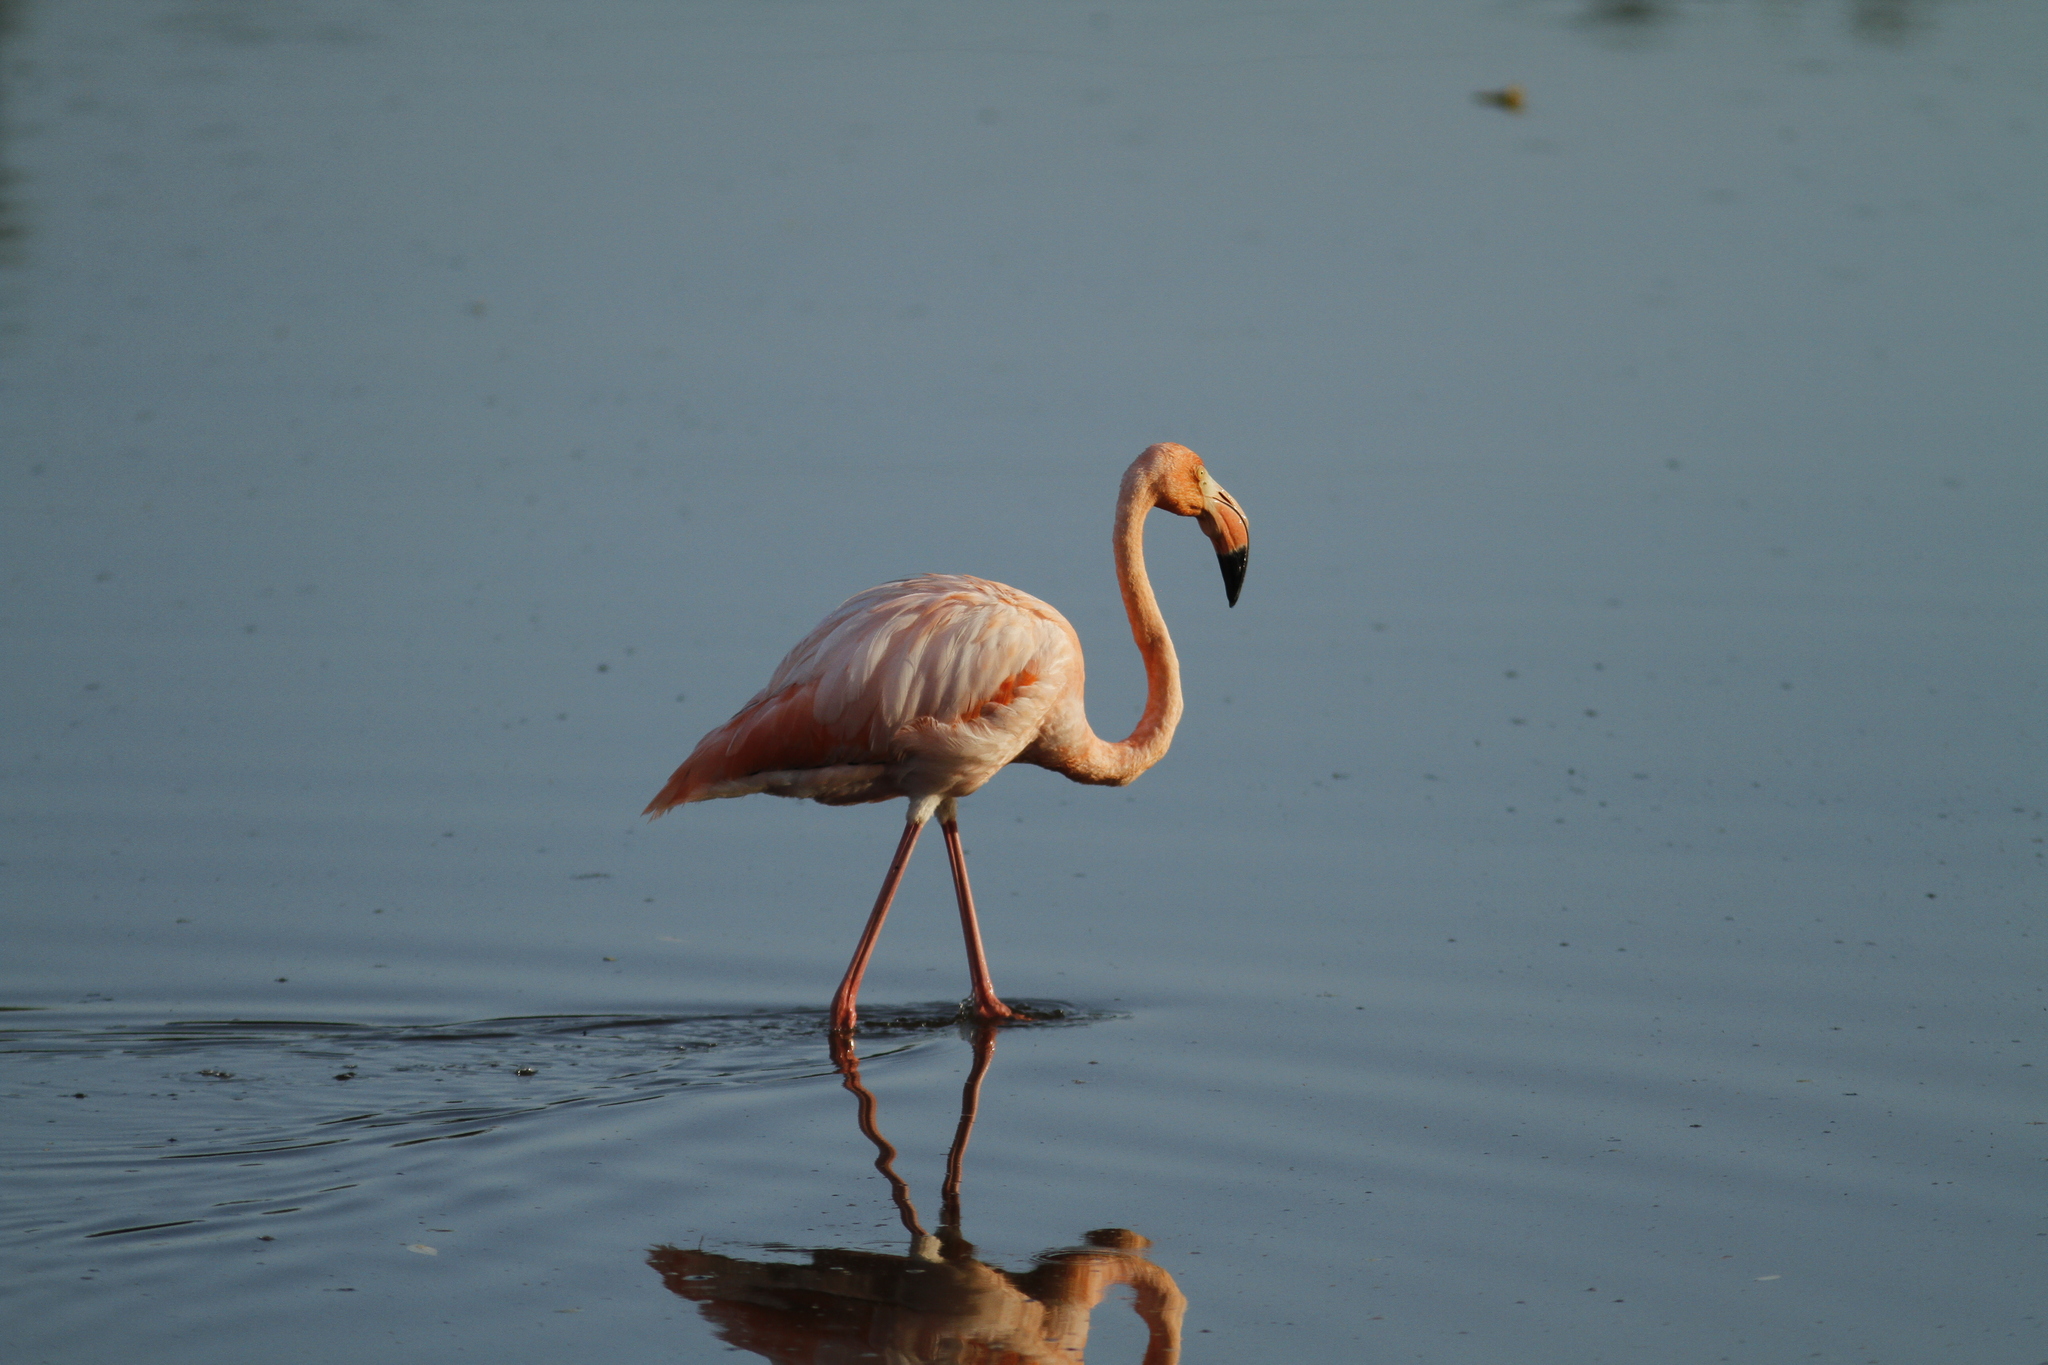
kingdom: Animalia
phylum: Chordata
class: Aves
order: Phoenicopteriformes
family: Phoenicopteridae
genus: Phoenicopterus
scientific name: Phoenicopterus ruber
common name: American flamingo
